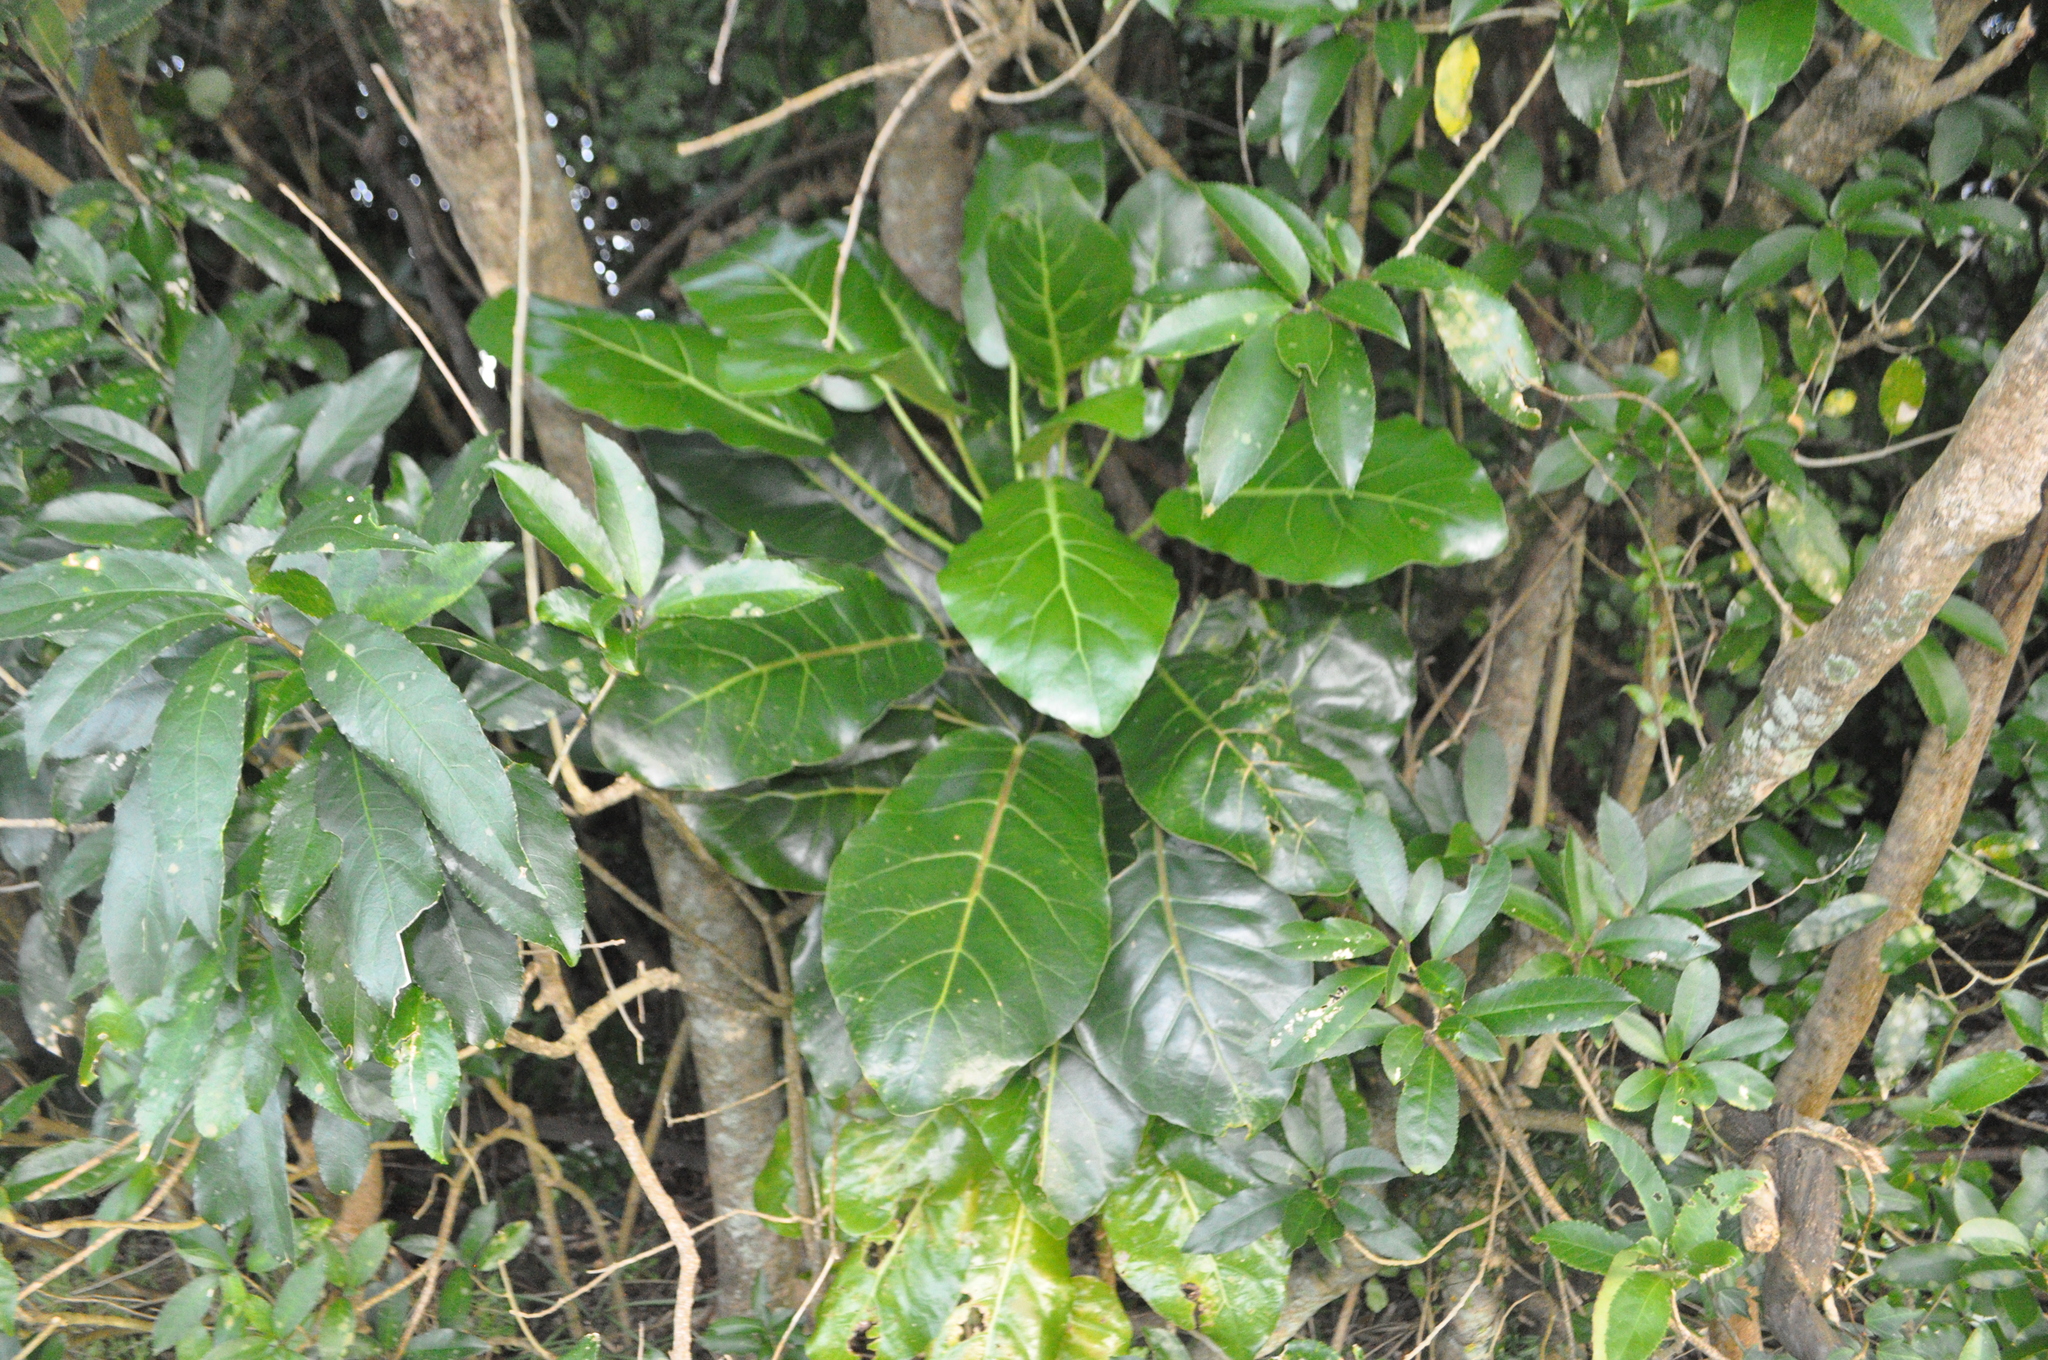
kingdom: Plantae
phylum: Tracheophyta
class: Magnoliopsida
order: Apiales
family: Araliaceae
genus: Meryta
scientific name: Meryta sinclairii
